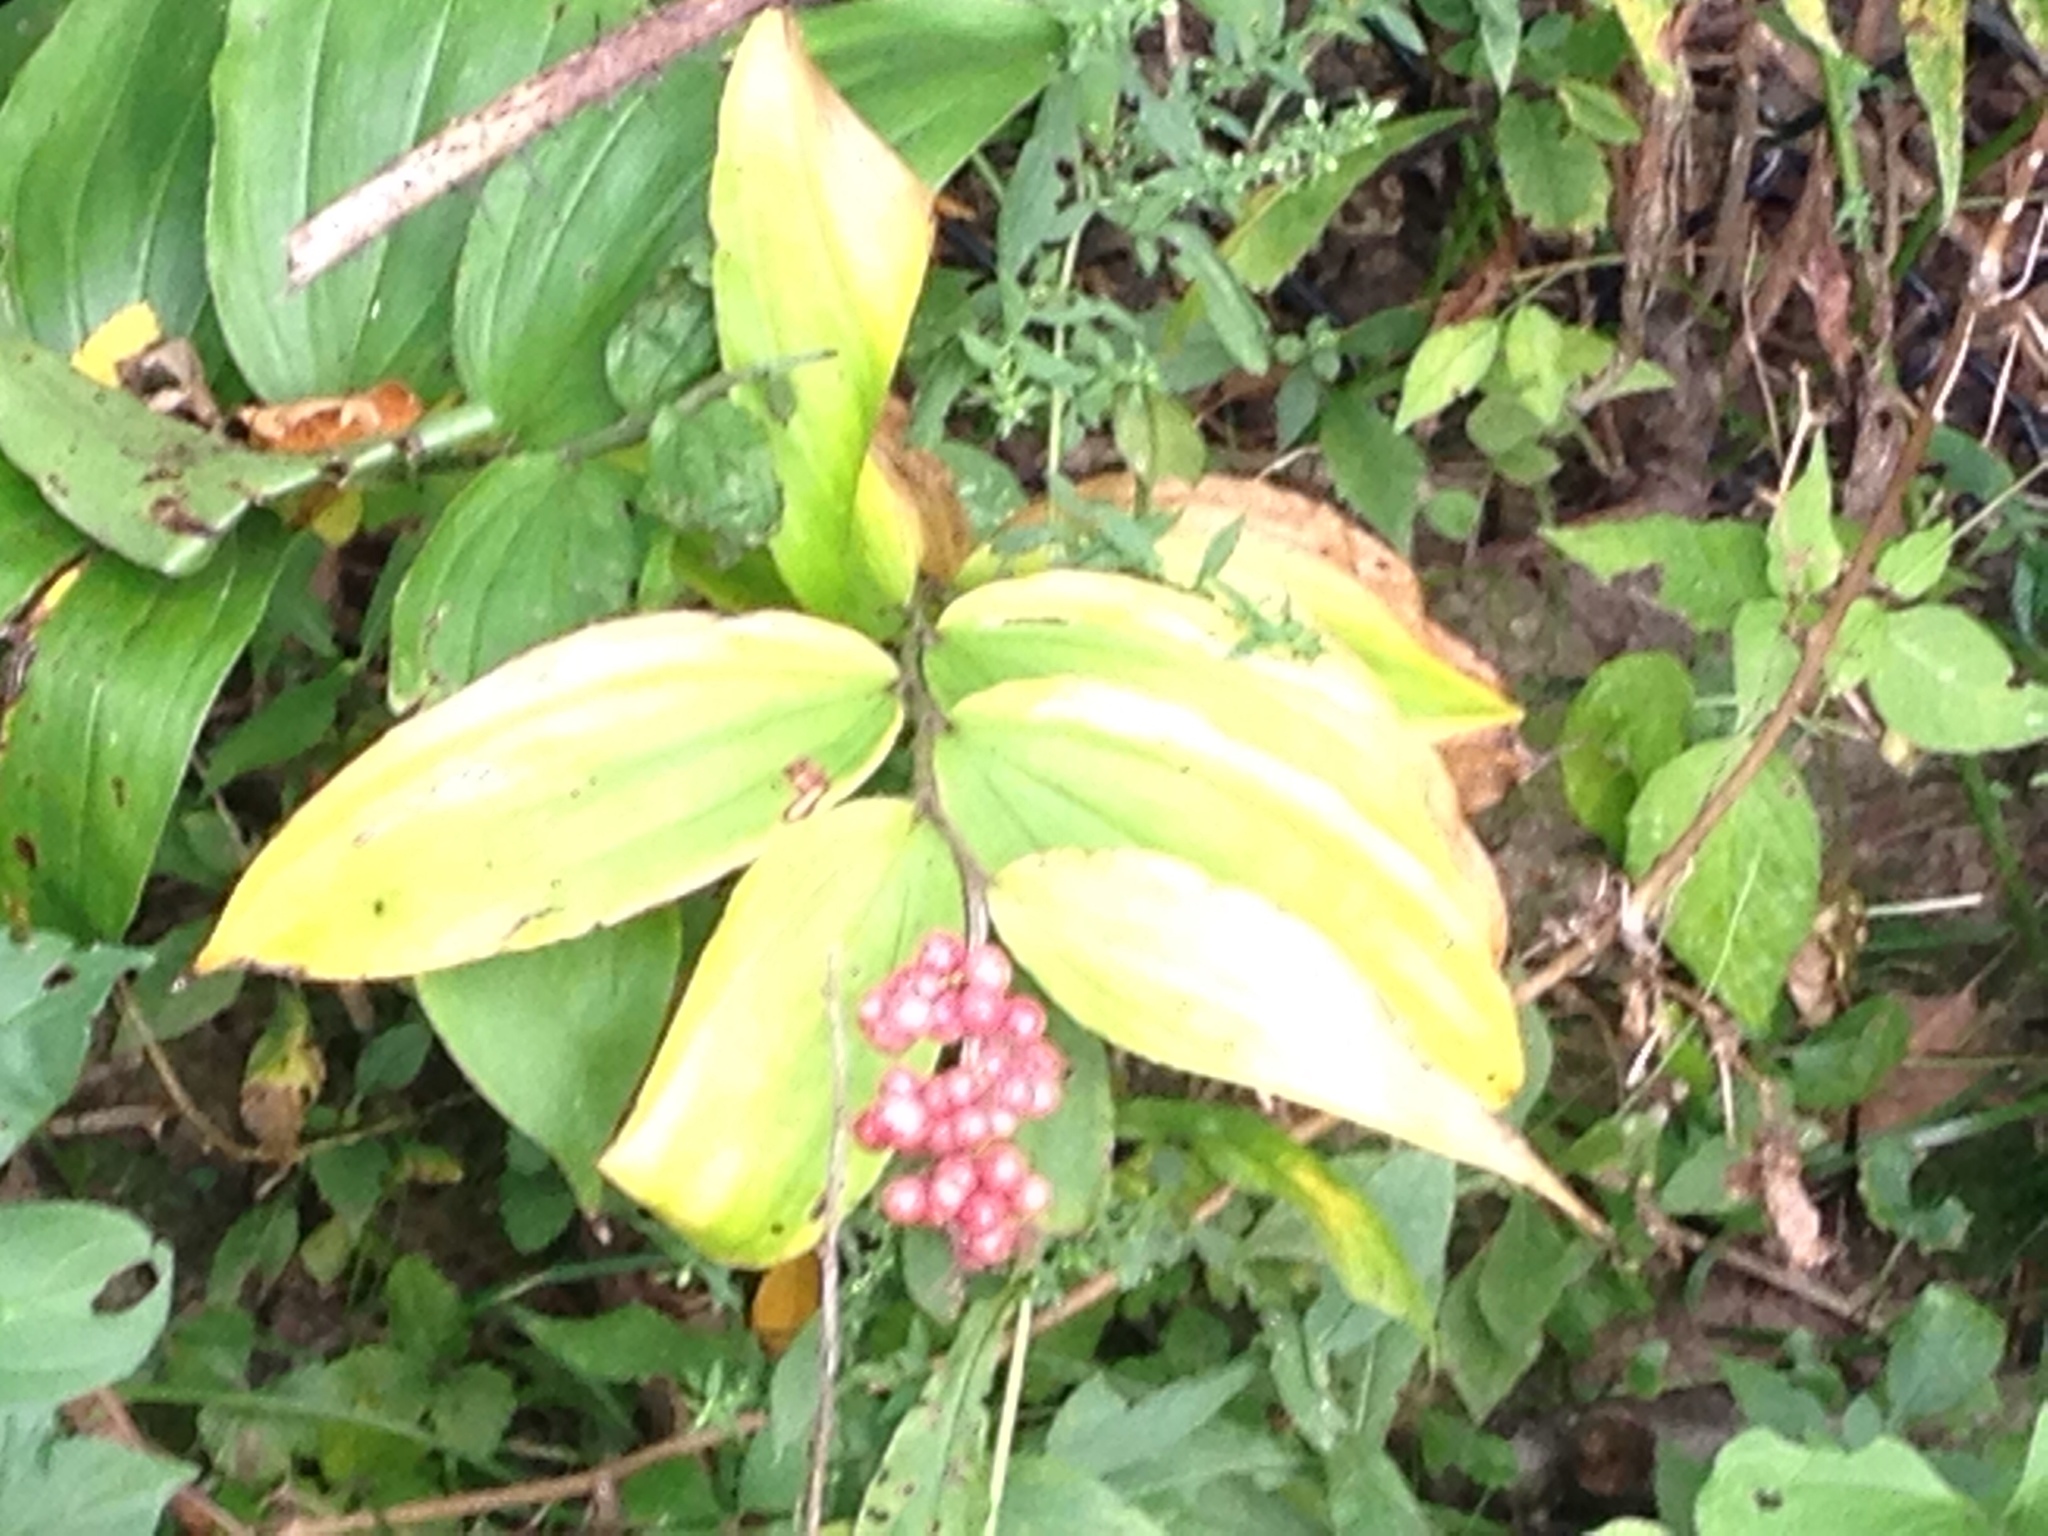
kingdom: Plantae
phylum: Tracheophyta
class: Liliopsida
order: Asparagales
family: Asparagaceae
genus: Maianthemum
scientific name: Maianthemum racemosum
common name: False spikenard
